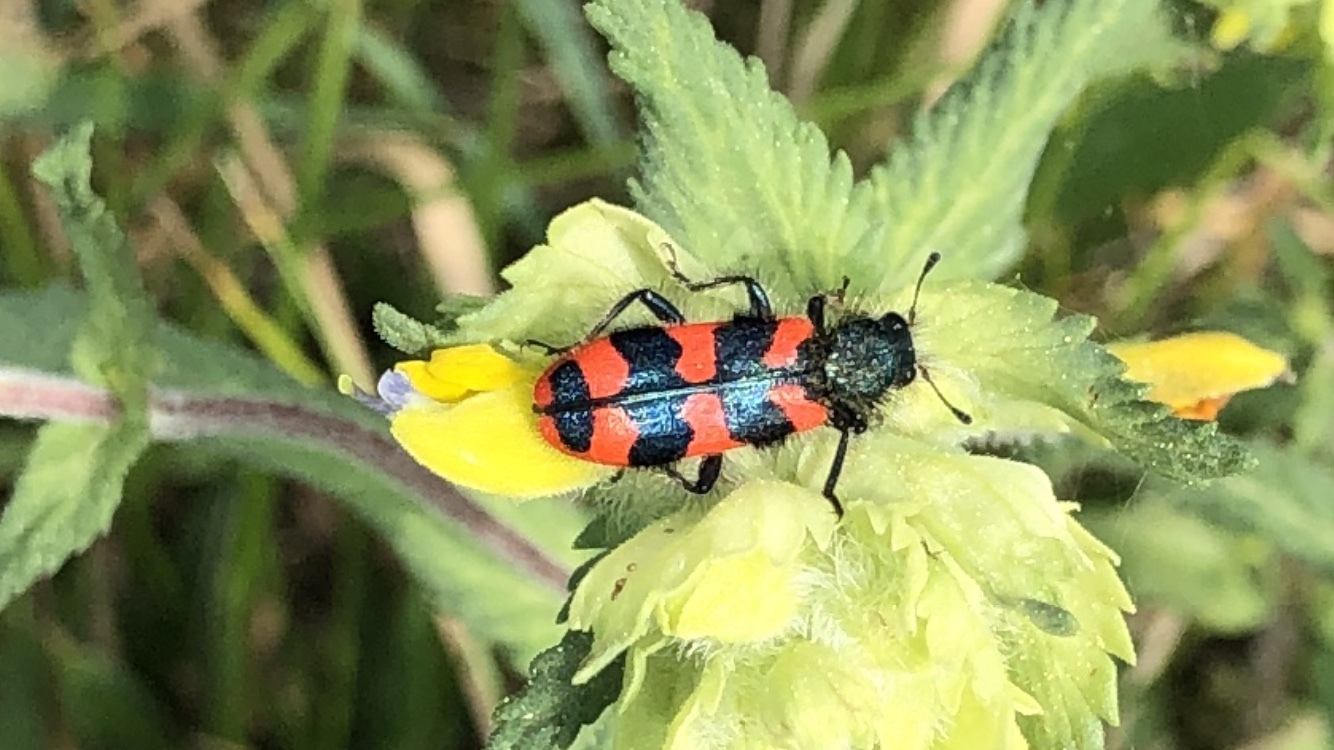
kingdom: Animalia
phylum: Arthropoda
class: Insecta
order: Coleoptera
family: Cleridae
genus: Trichodes
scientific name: Trichodes alvearius
